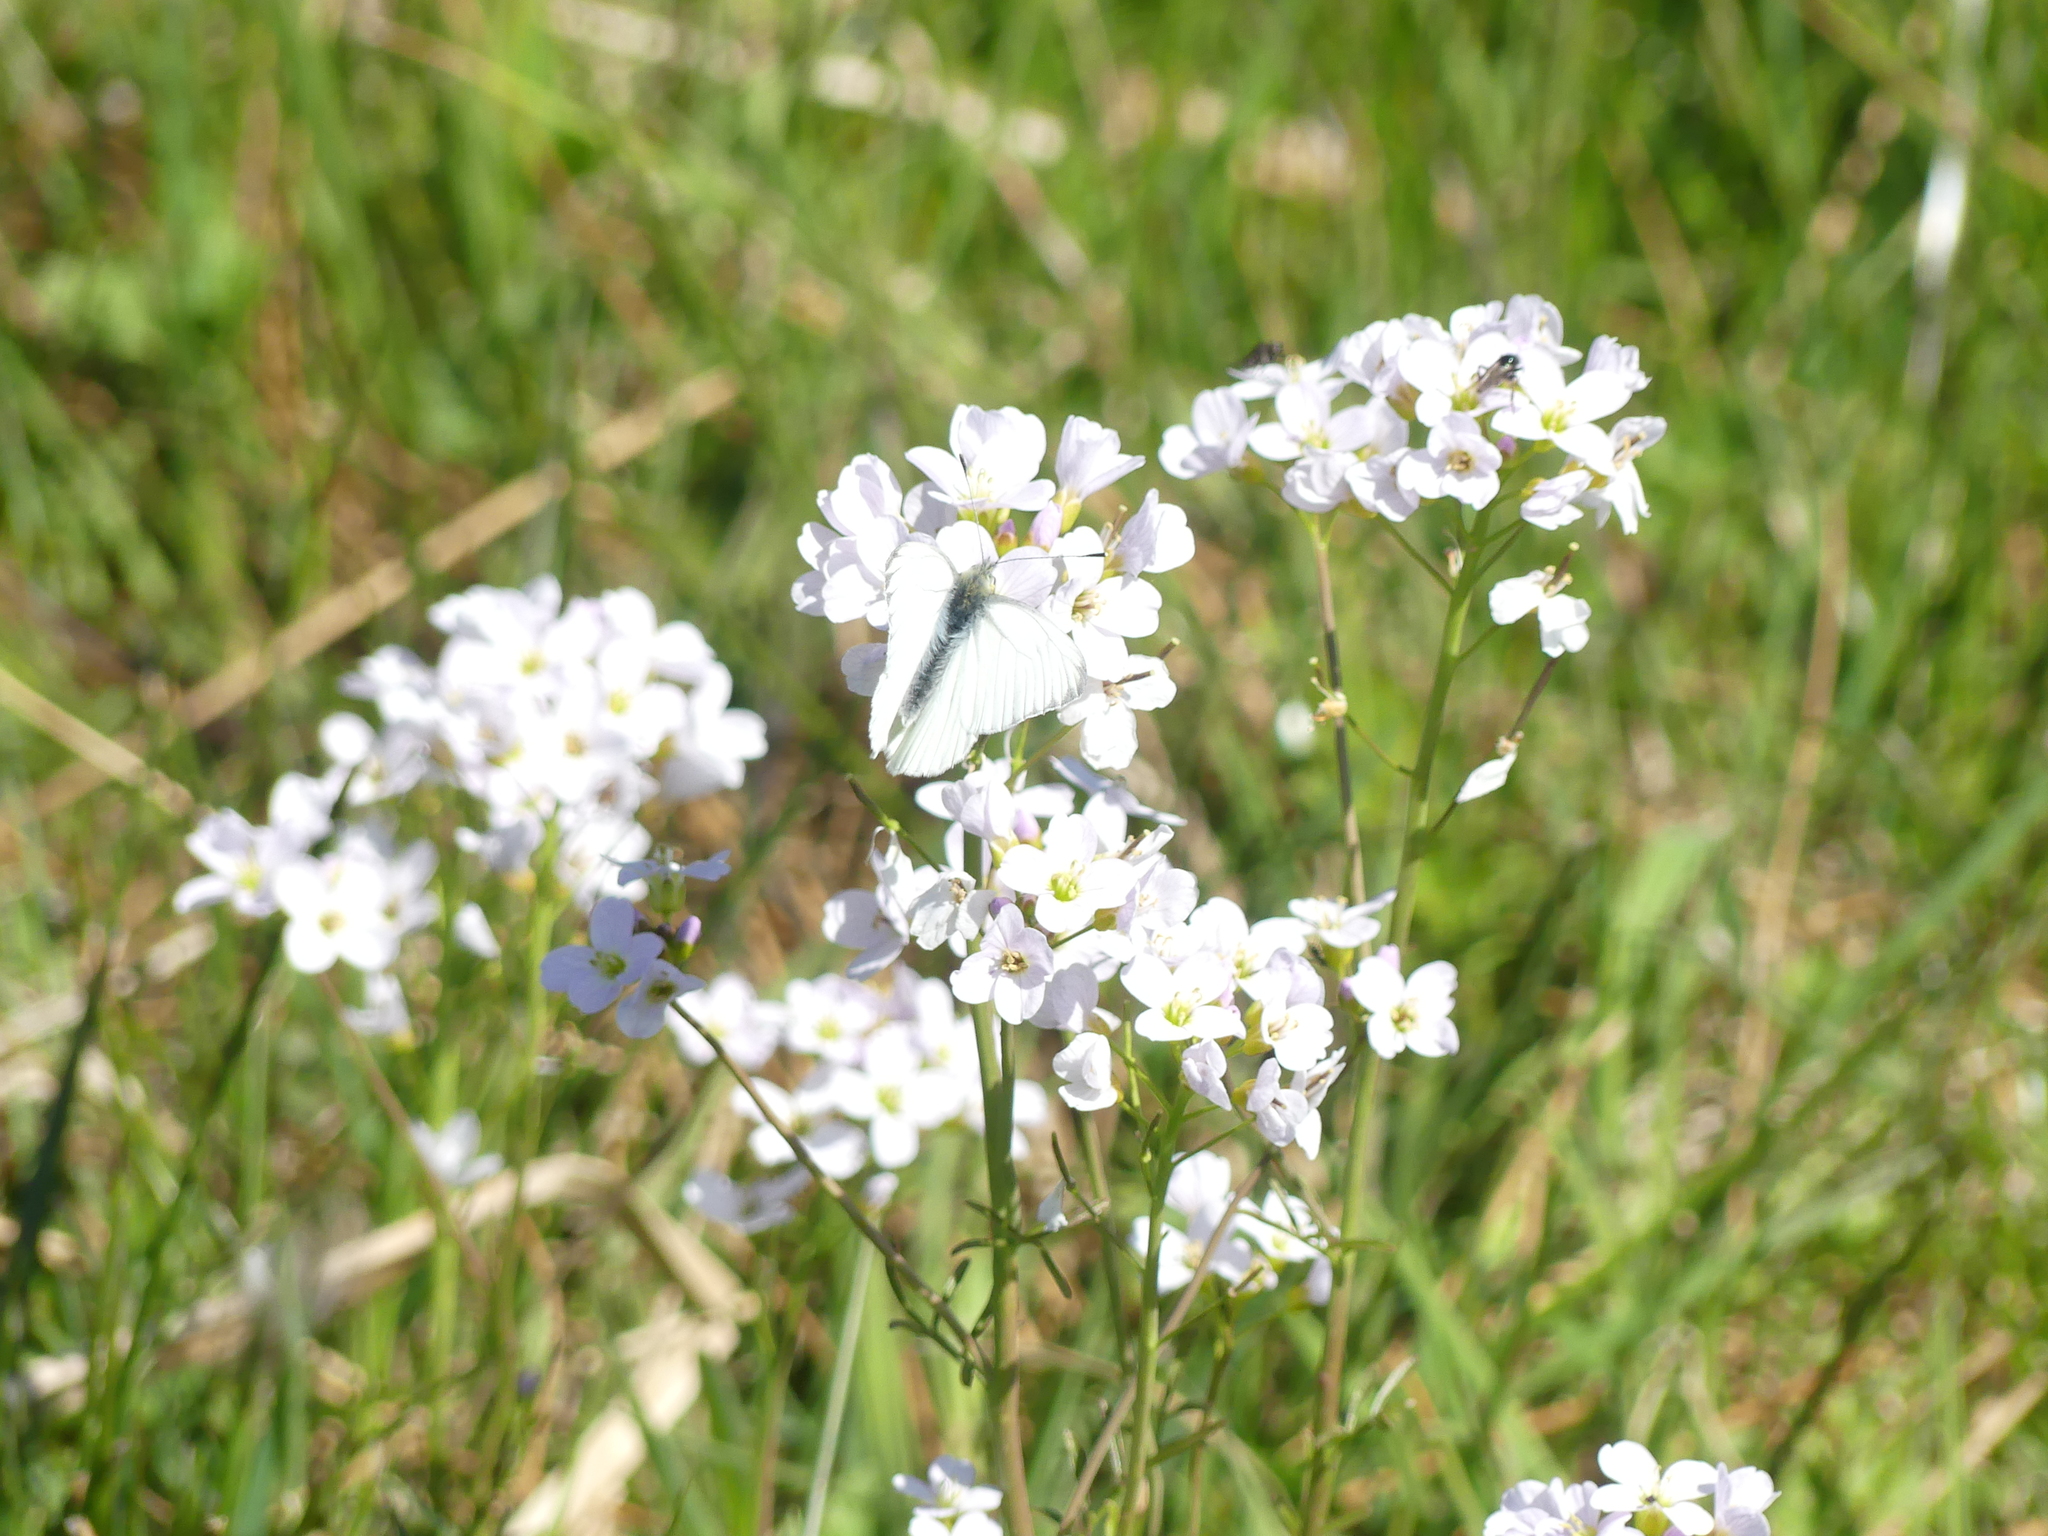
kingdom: Animalia
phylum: Arthropoda
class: Insecta
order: Lepidoptera
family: Pieridae
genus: Pieris
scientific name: Pieris napi
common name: Green-veined white
